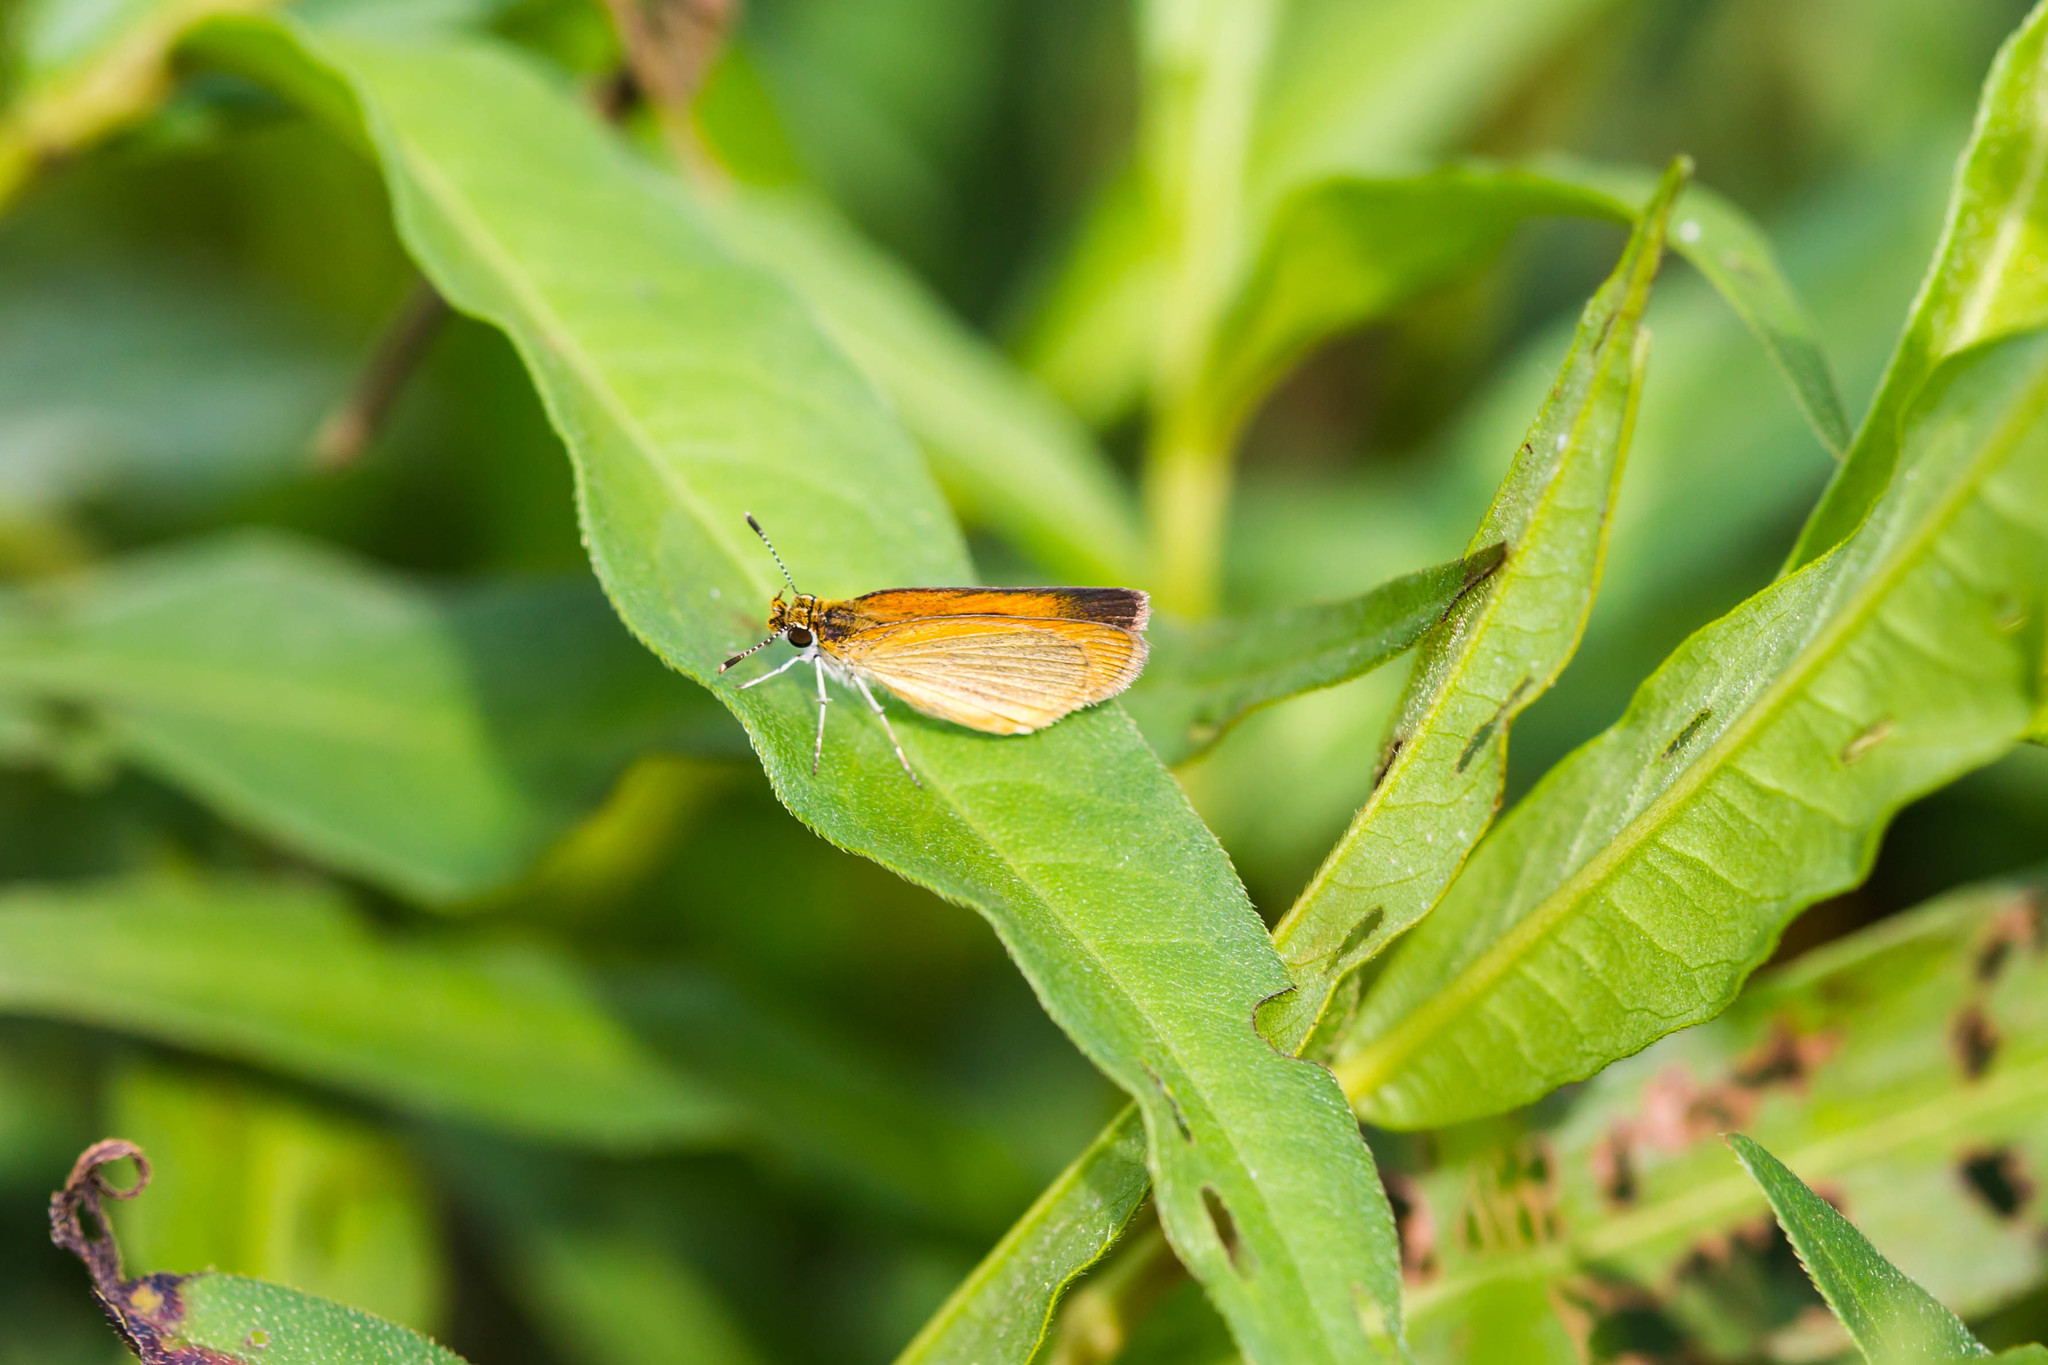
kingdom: Animalia
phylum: Arthropoda
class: Insecta
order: Lepidoptera
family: Hesperiidae
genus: Ancyloxypha
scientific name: Ancyloxypha numitor
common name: Least skipper
